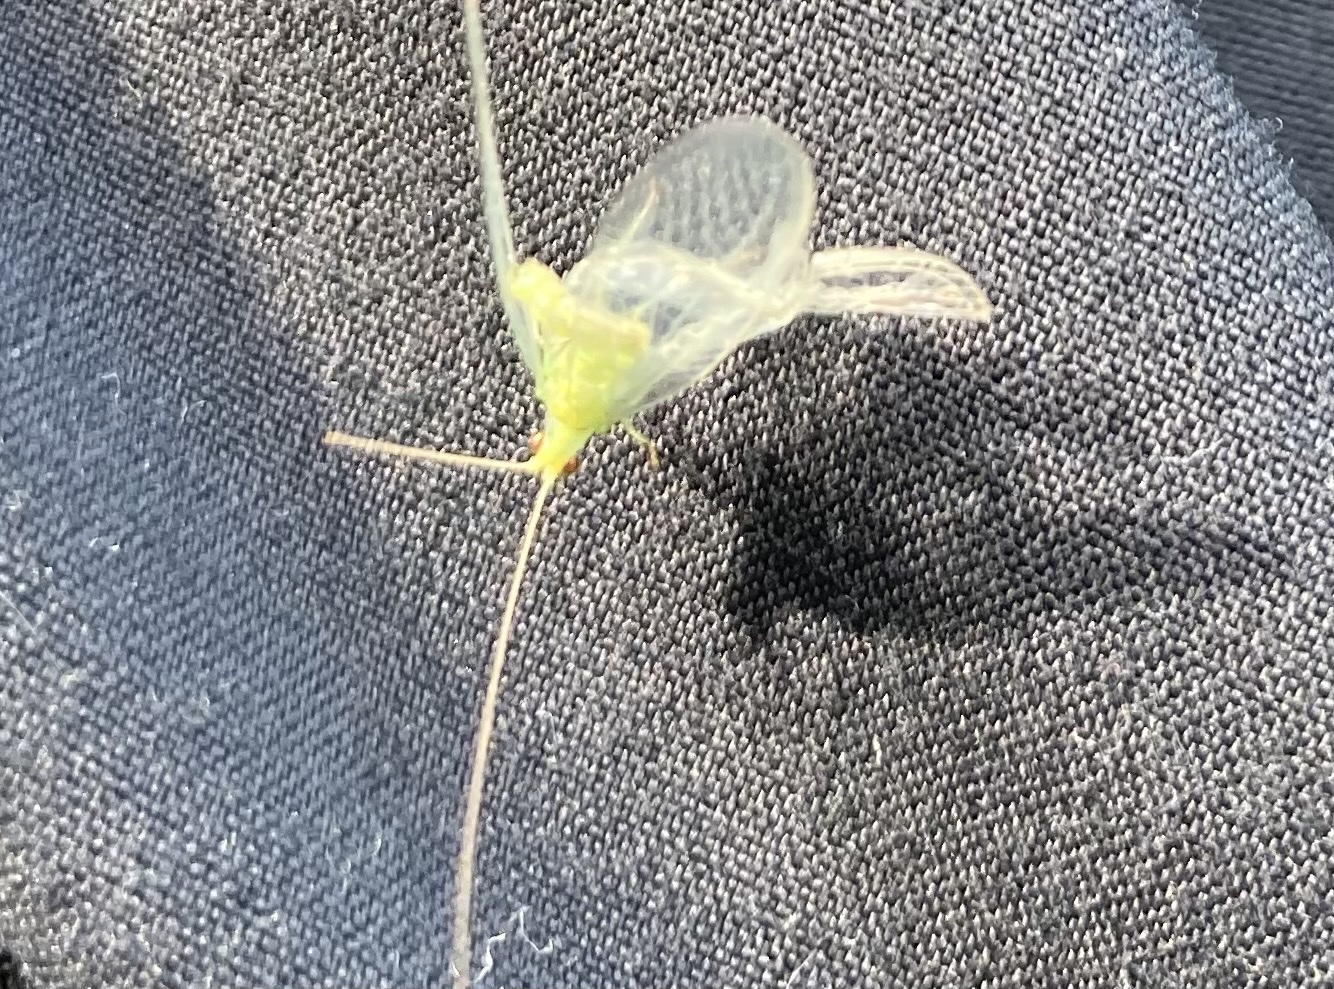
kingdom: Animalia
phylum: Arthropoda
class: Insecta
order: Neuroptera
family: Chrysopidae
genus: Mallada
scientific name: Mallada basalis
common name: Green lacewing
